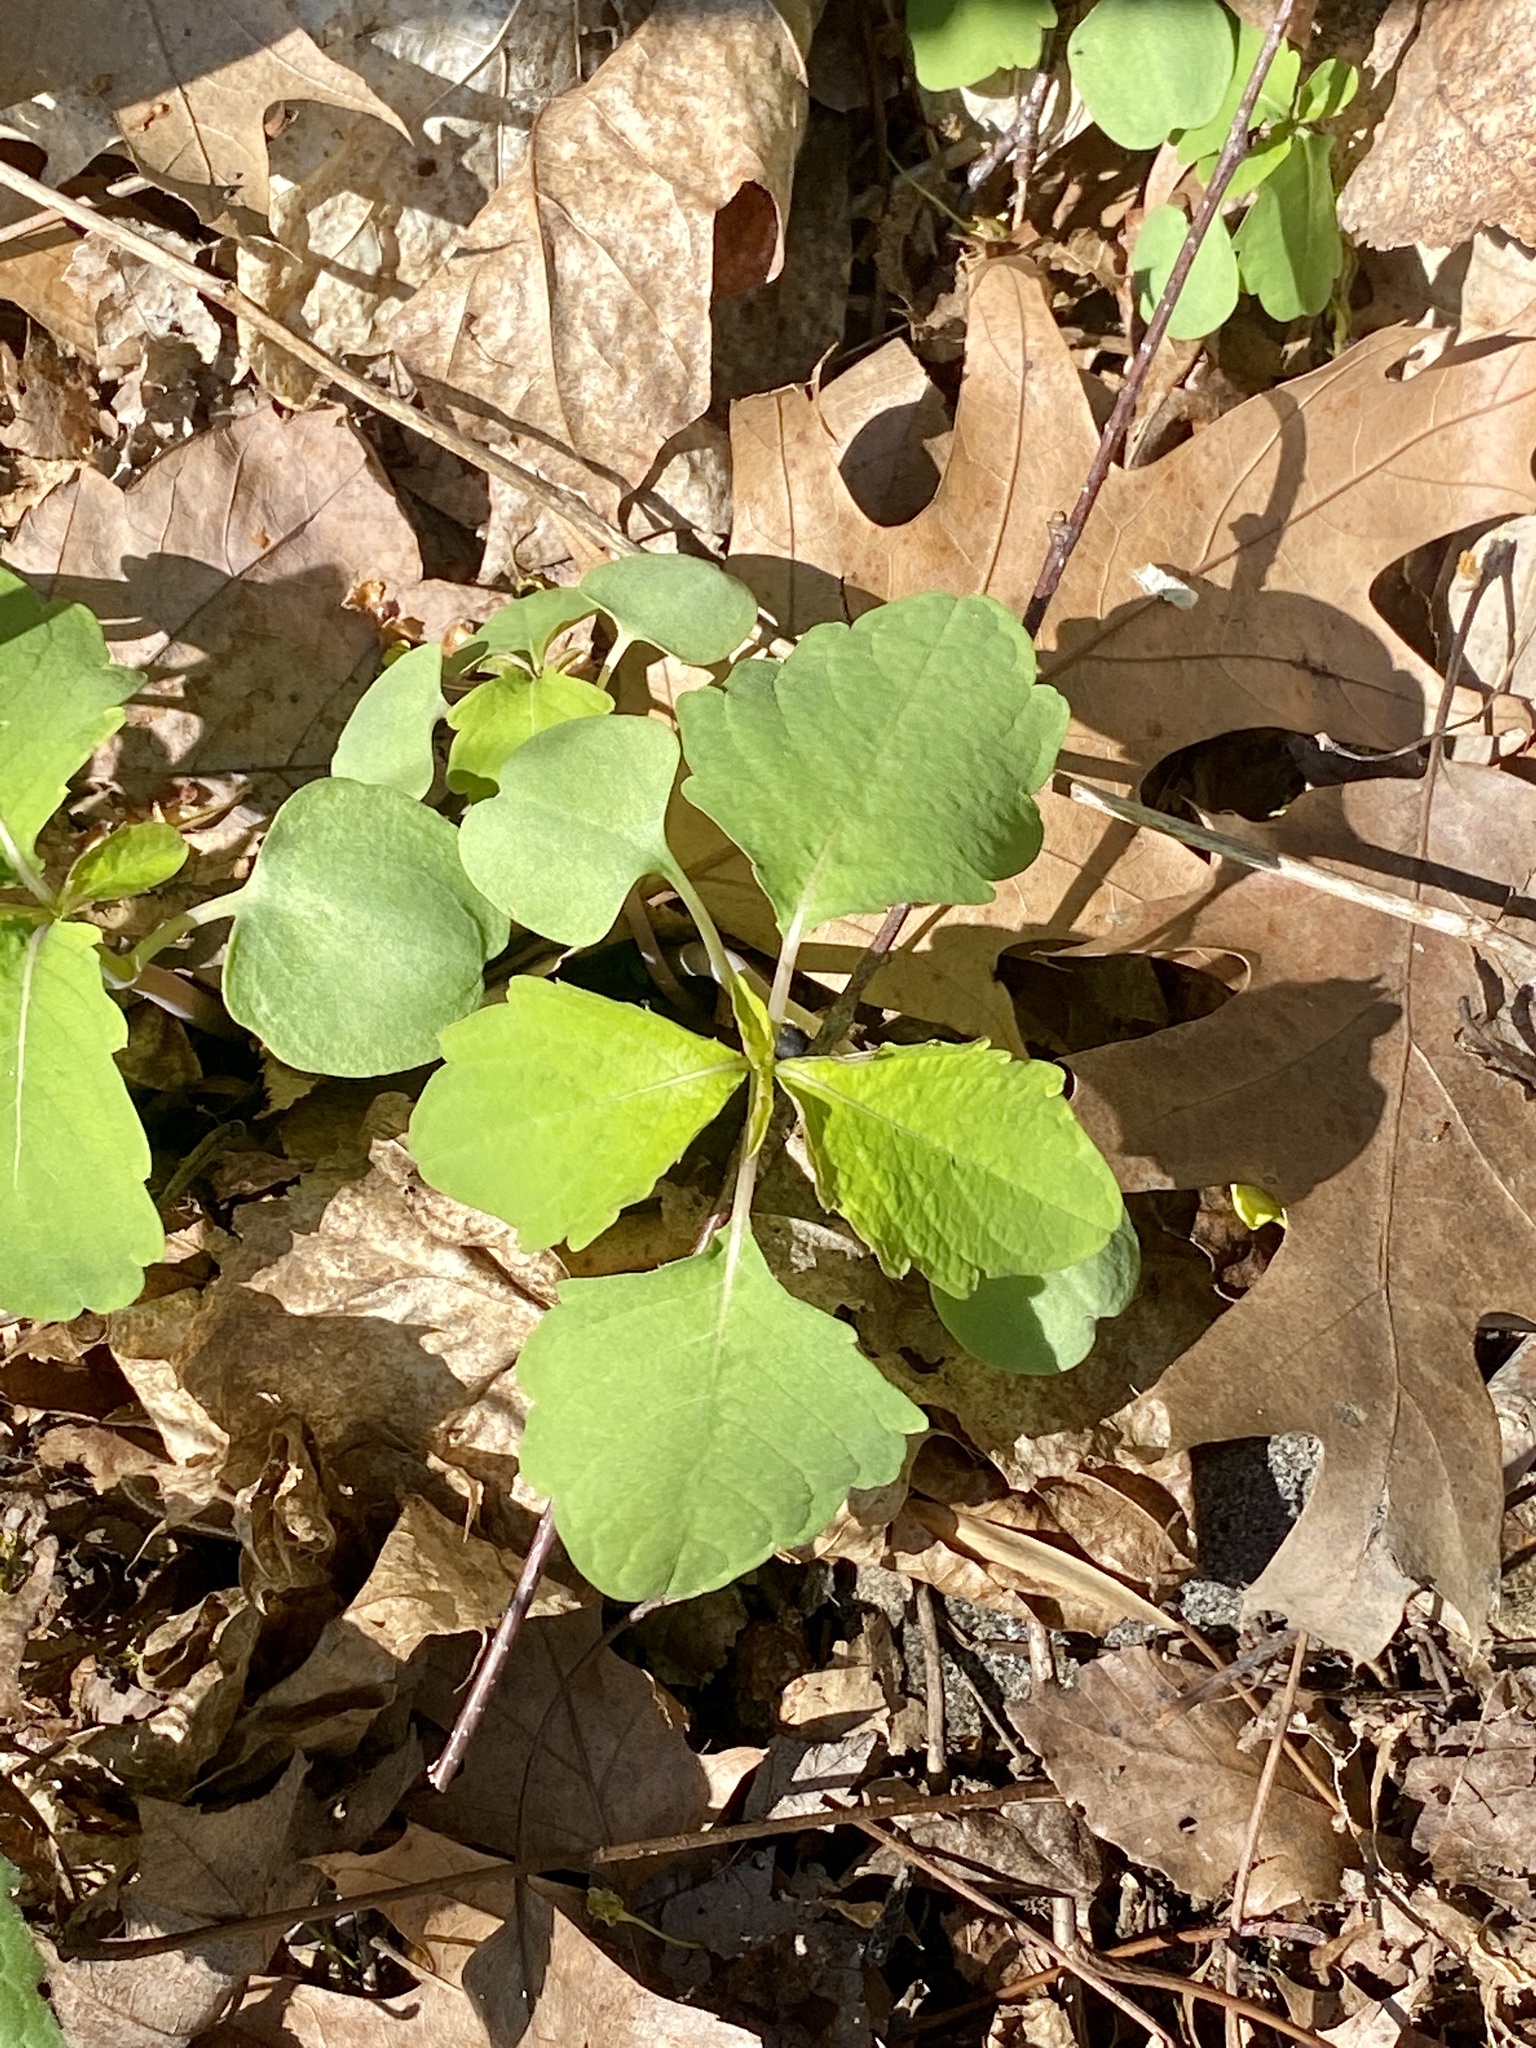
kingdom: Plantae
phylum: Tracheophyta
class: Magnoliopsida
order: Ericales
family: Balsaminaceae
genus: Impatiens
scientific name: Impatiens capensis
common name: Orange balsam
